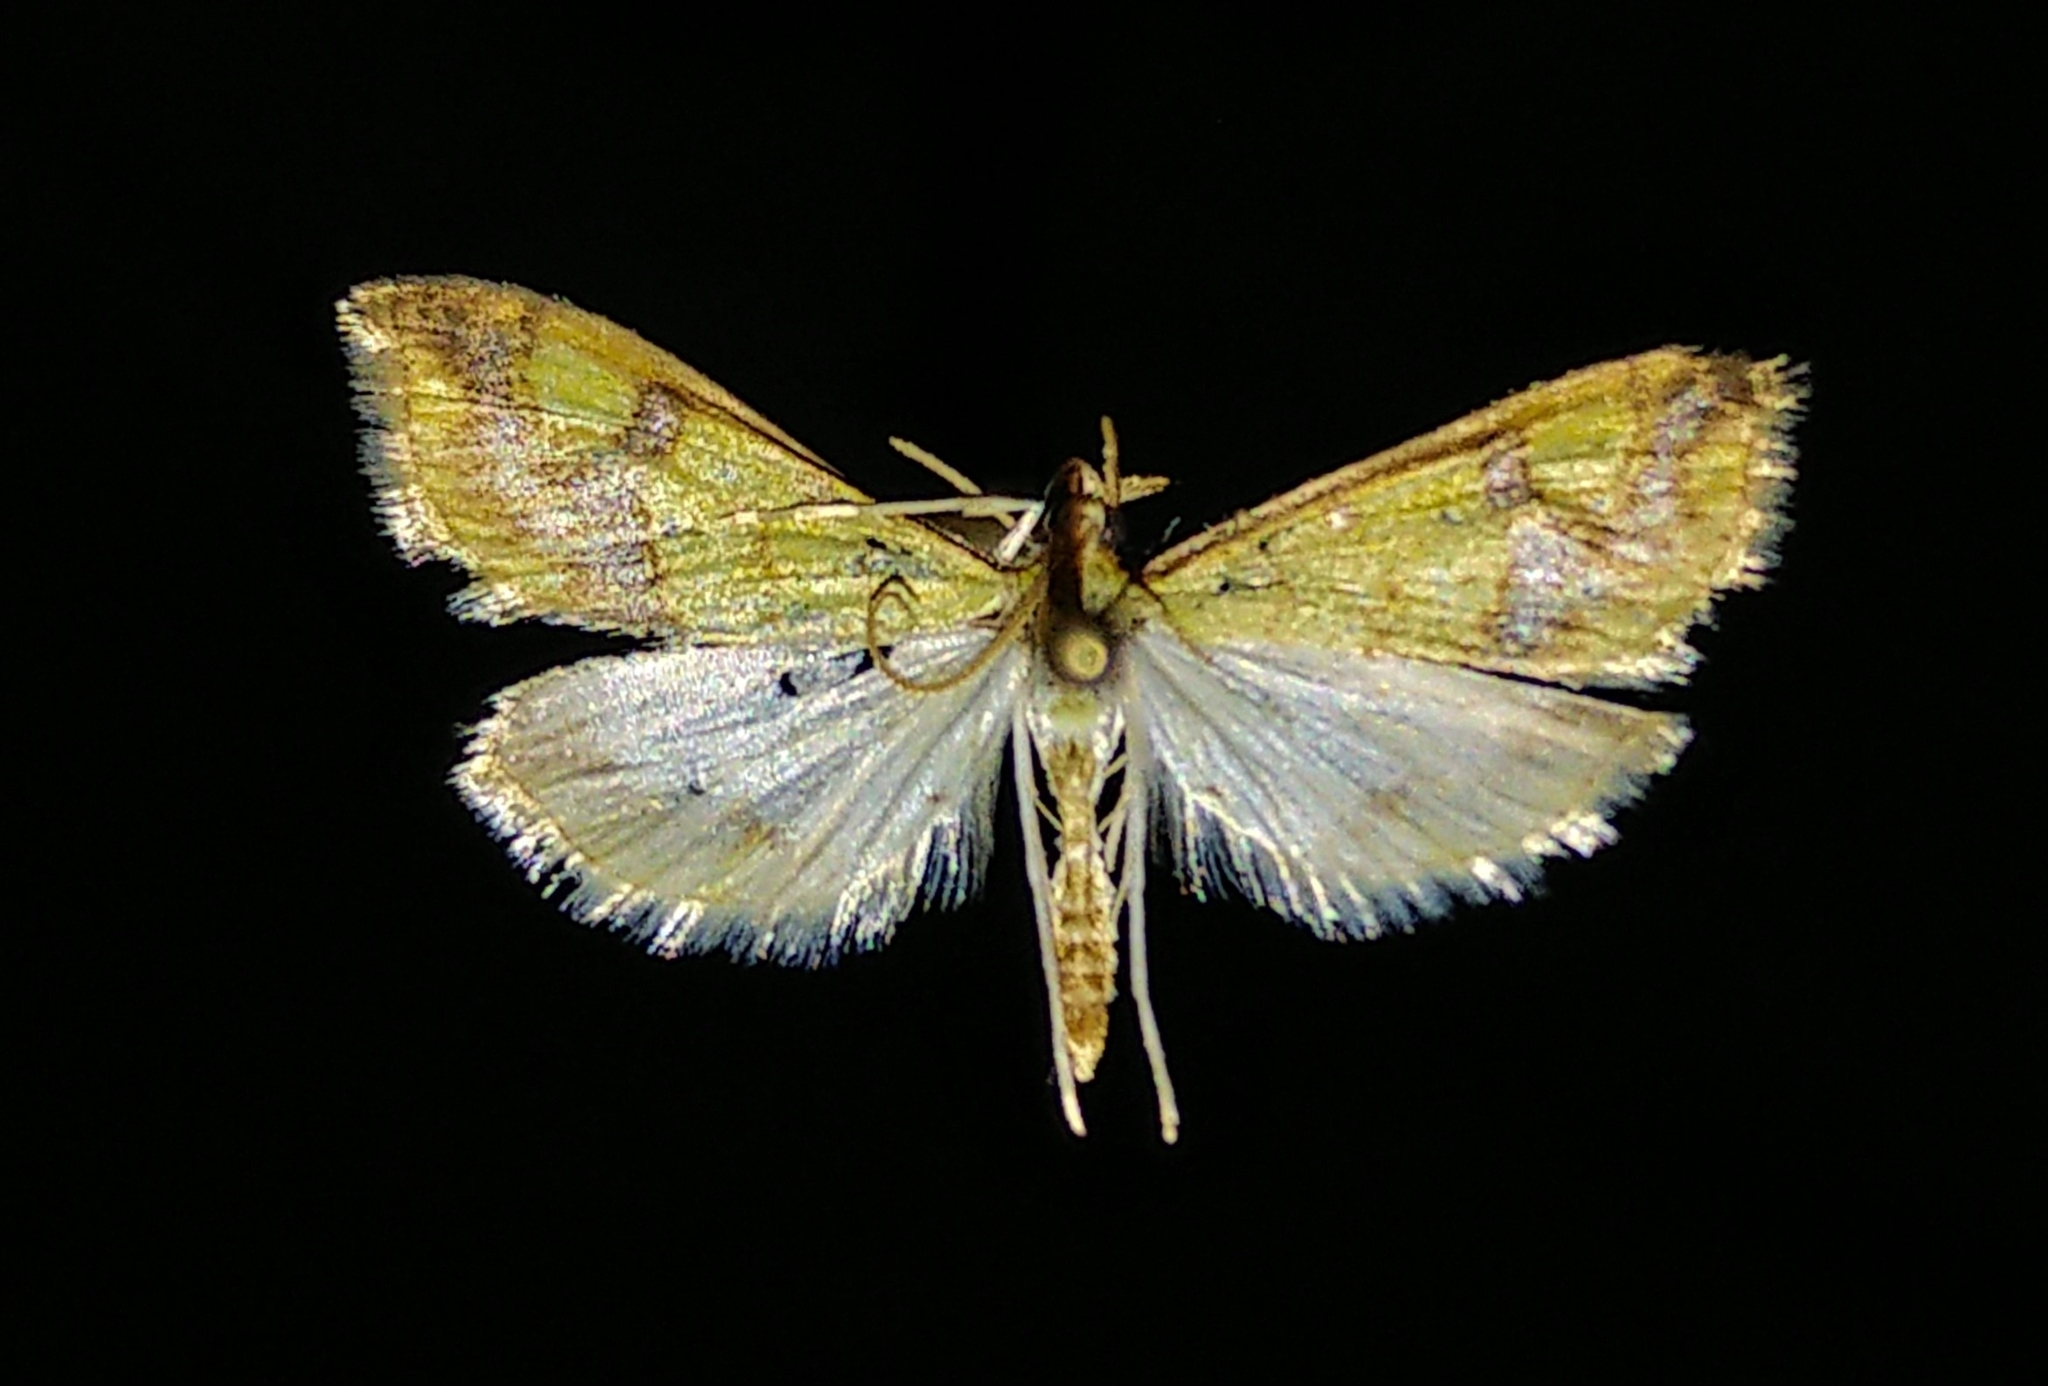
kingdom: Animalia
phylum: Arthropoda
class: Insecta
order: Lepidoptera
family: Crambidae
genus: Choristostigma
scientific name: Choristostigma plumbosignalis
